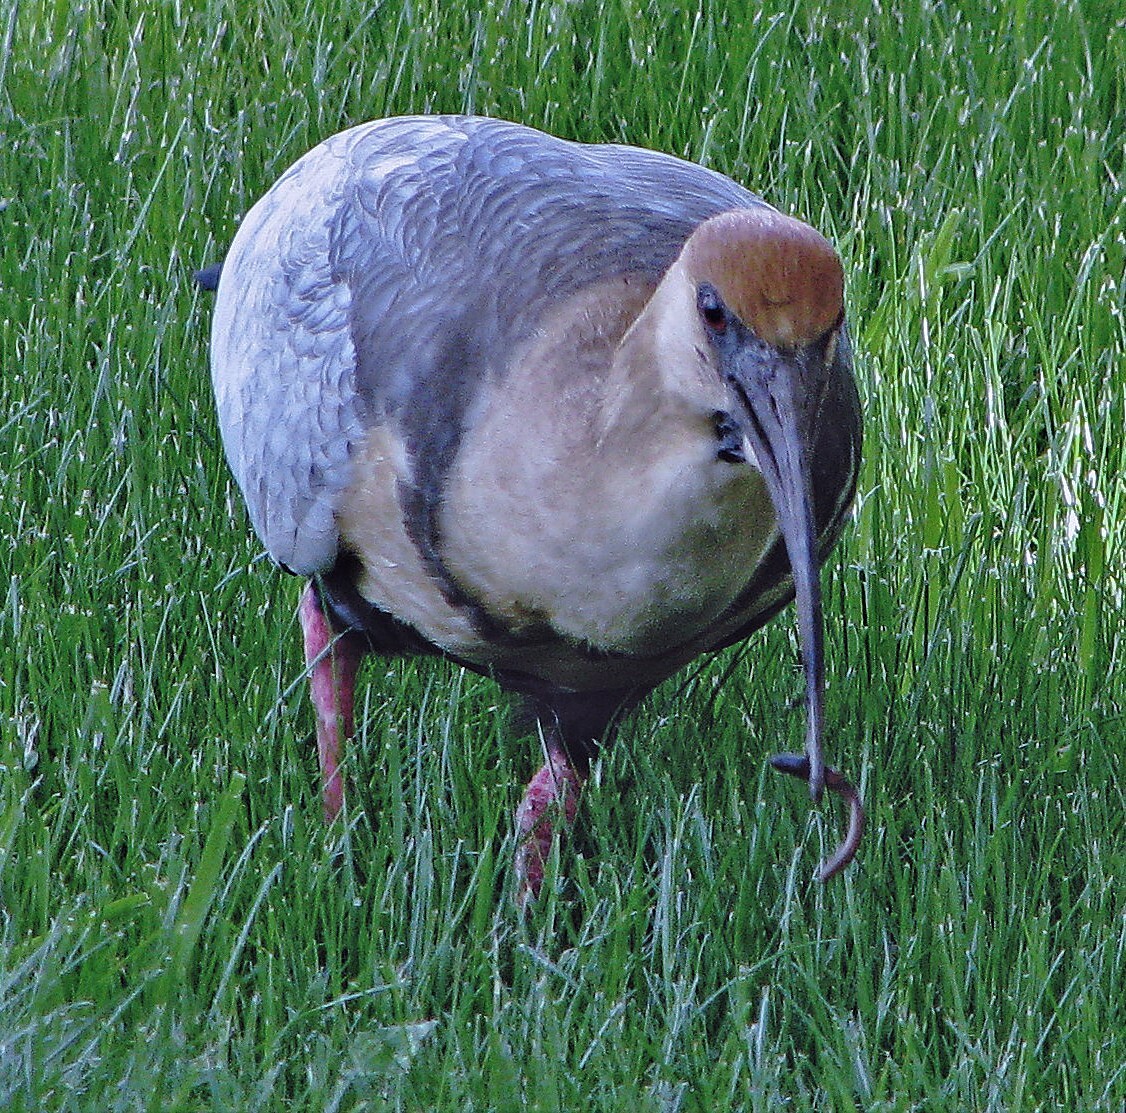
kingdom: Animalia
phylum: Chordata
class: Aves
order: Pelecaniformes
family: Threskiornithidae
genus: Theristicus
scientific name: Theristicus melanopis
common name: Black-faced ibis
